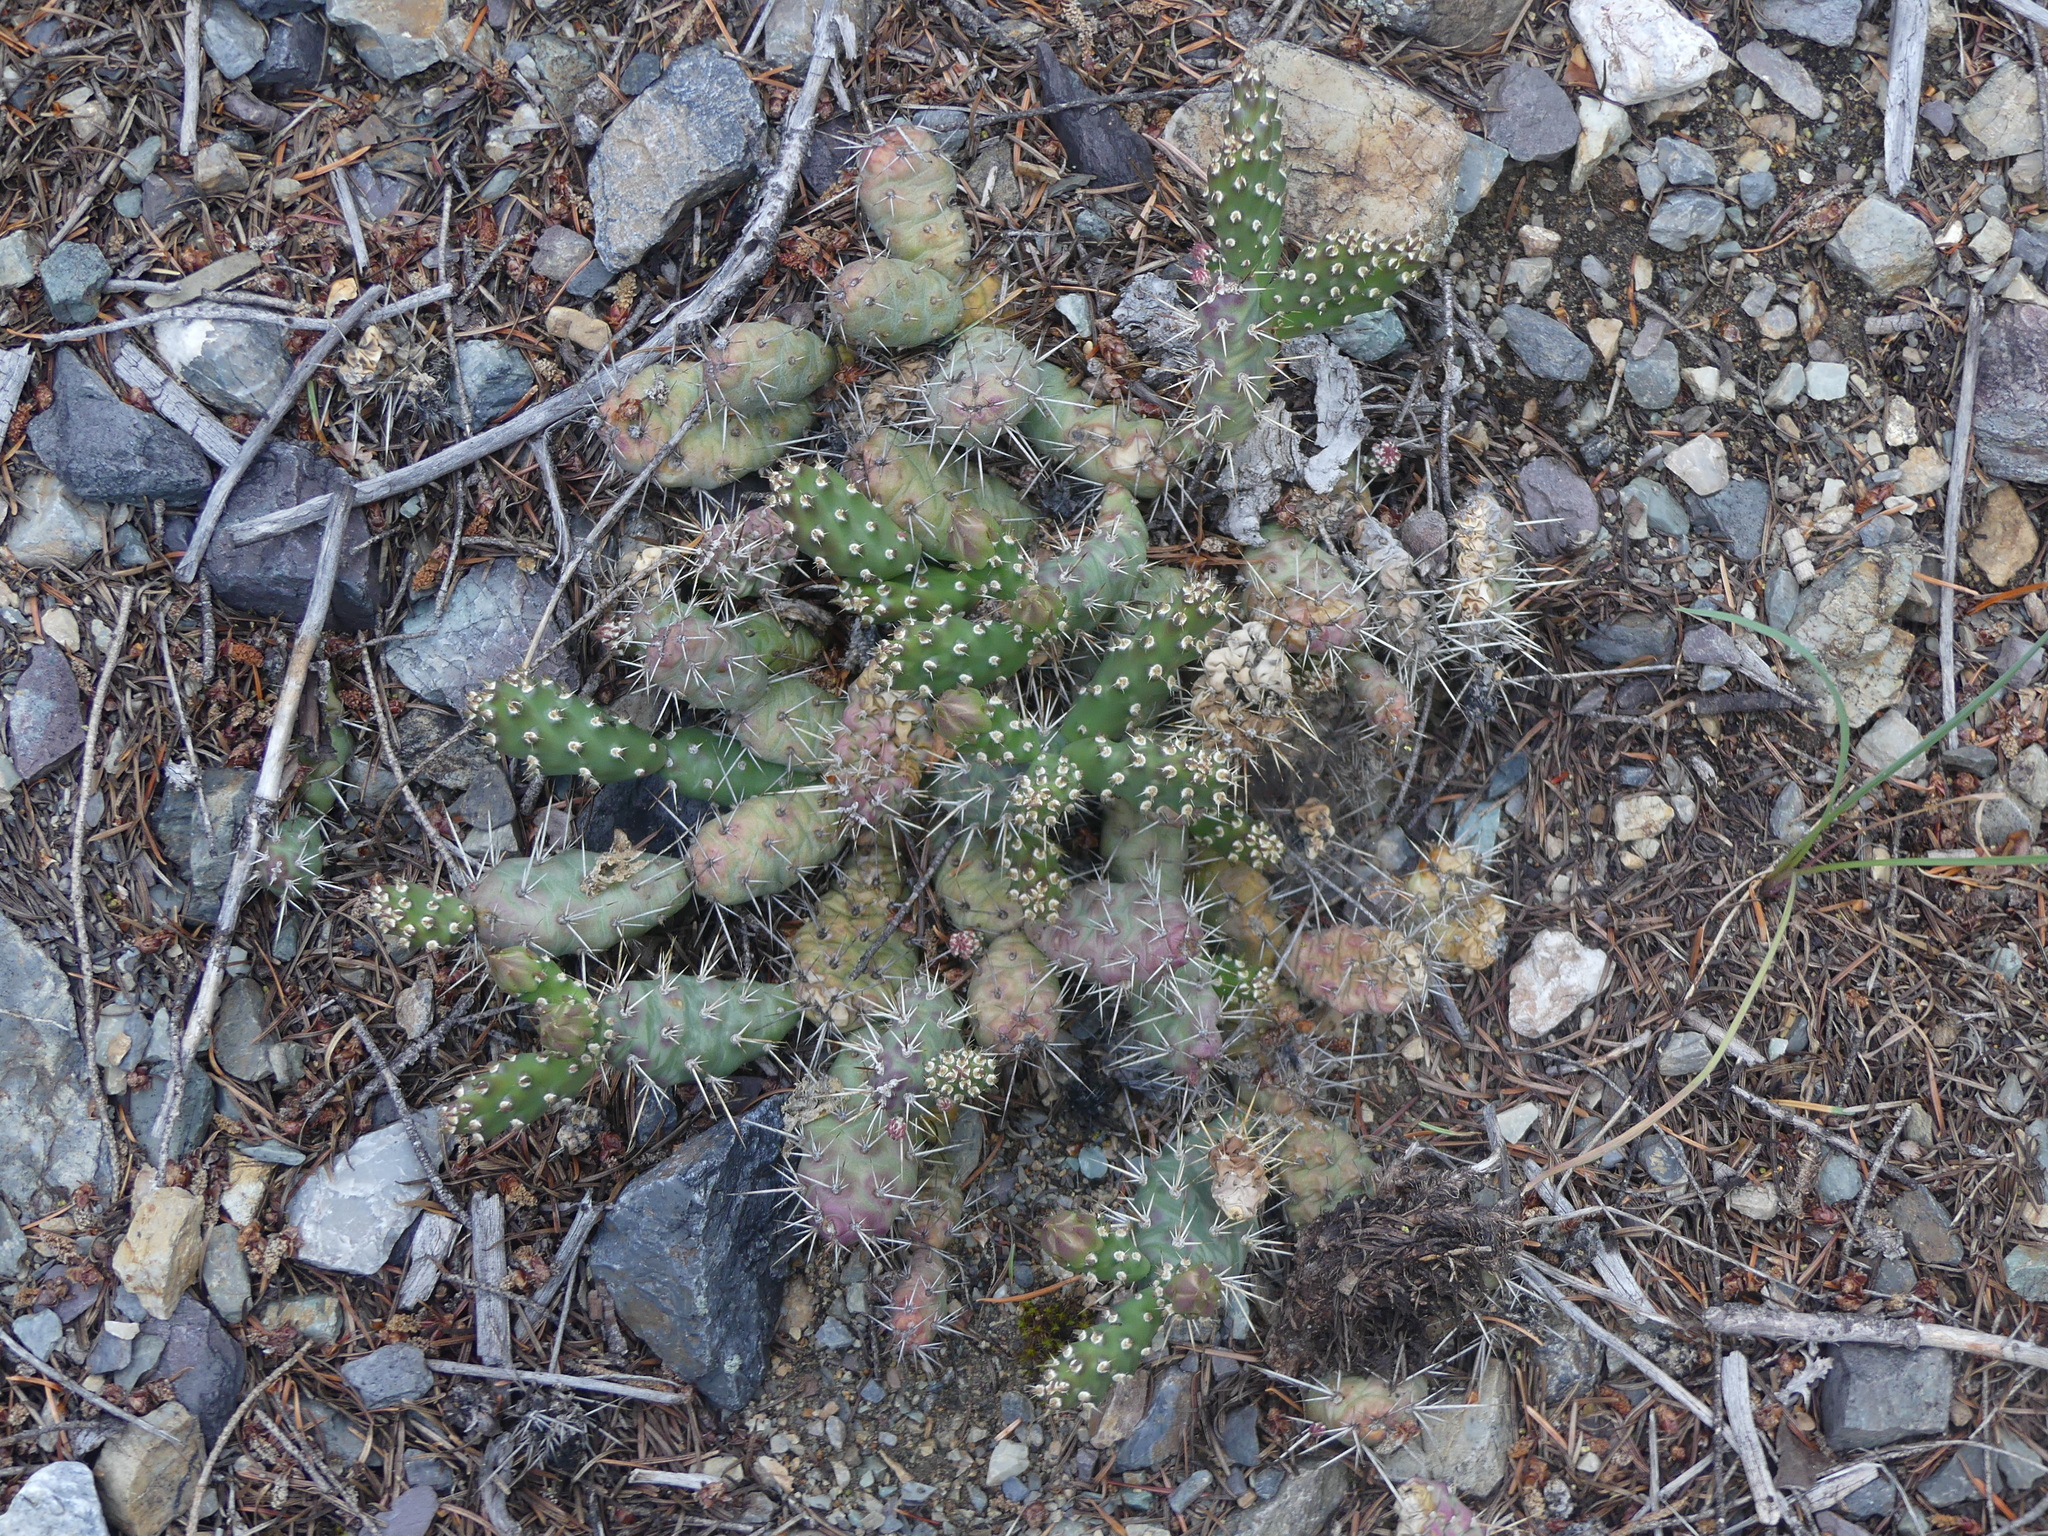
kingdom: Plantae
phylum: Tracheophyta
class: Magnoliopsida
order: Caryophyllales
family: Cactaceae
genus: Opuntia
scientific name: Opuntia fragilis
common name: Brittle cactus
